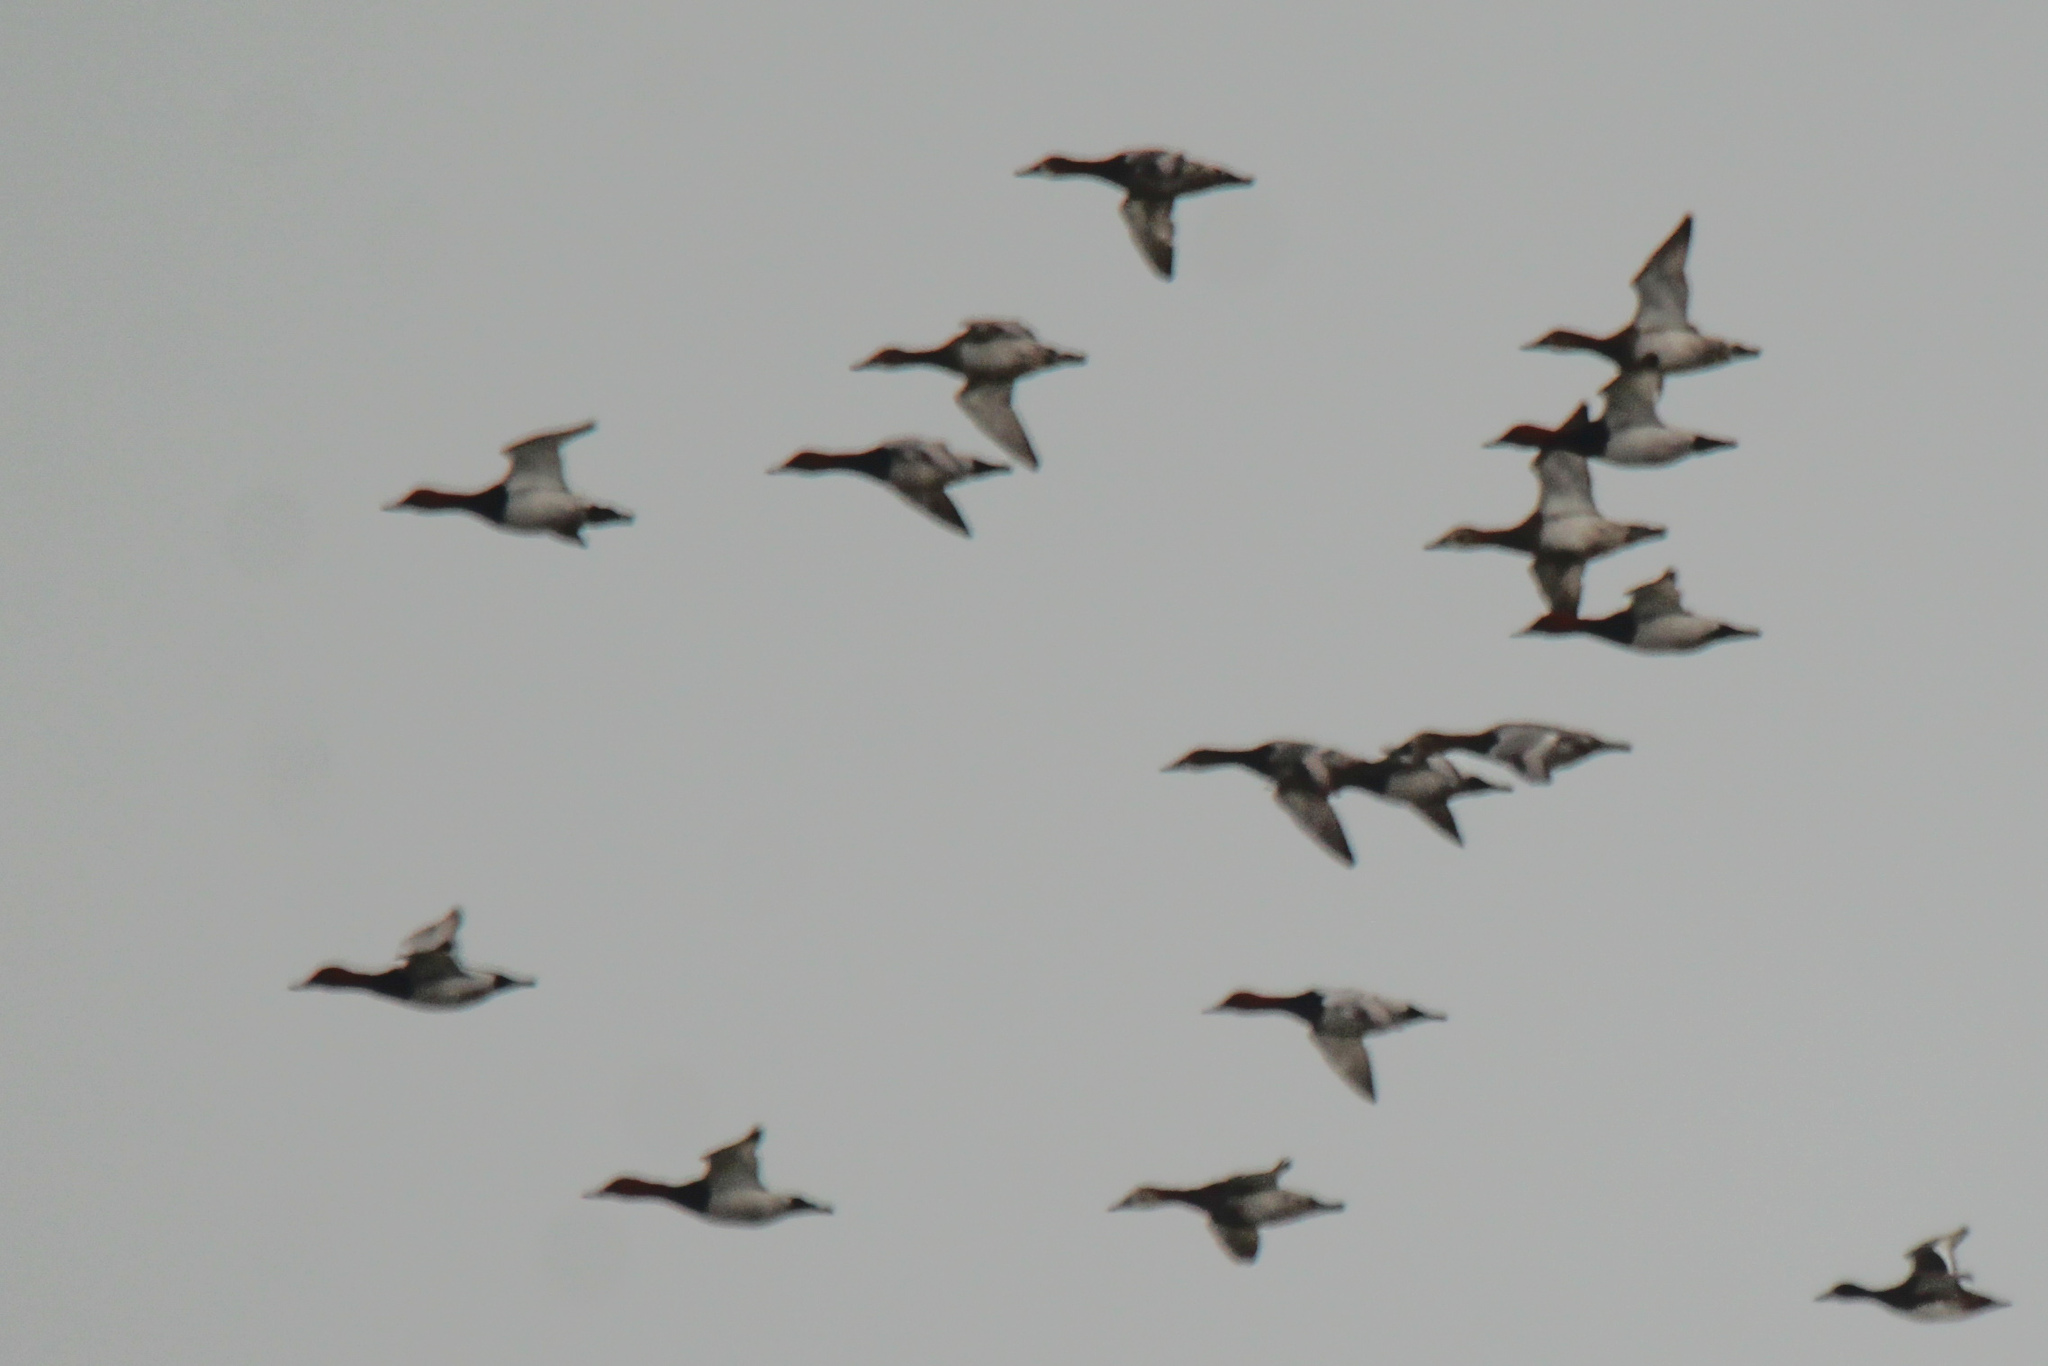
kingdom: Animalia
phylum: Chordata
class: Aves
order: Anseriformes
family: Anatidae
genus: Aythya
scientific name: Aythya ferina
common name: Common pochard
